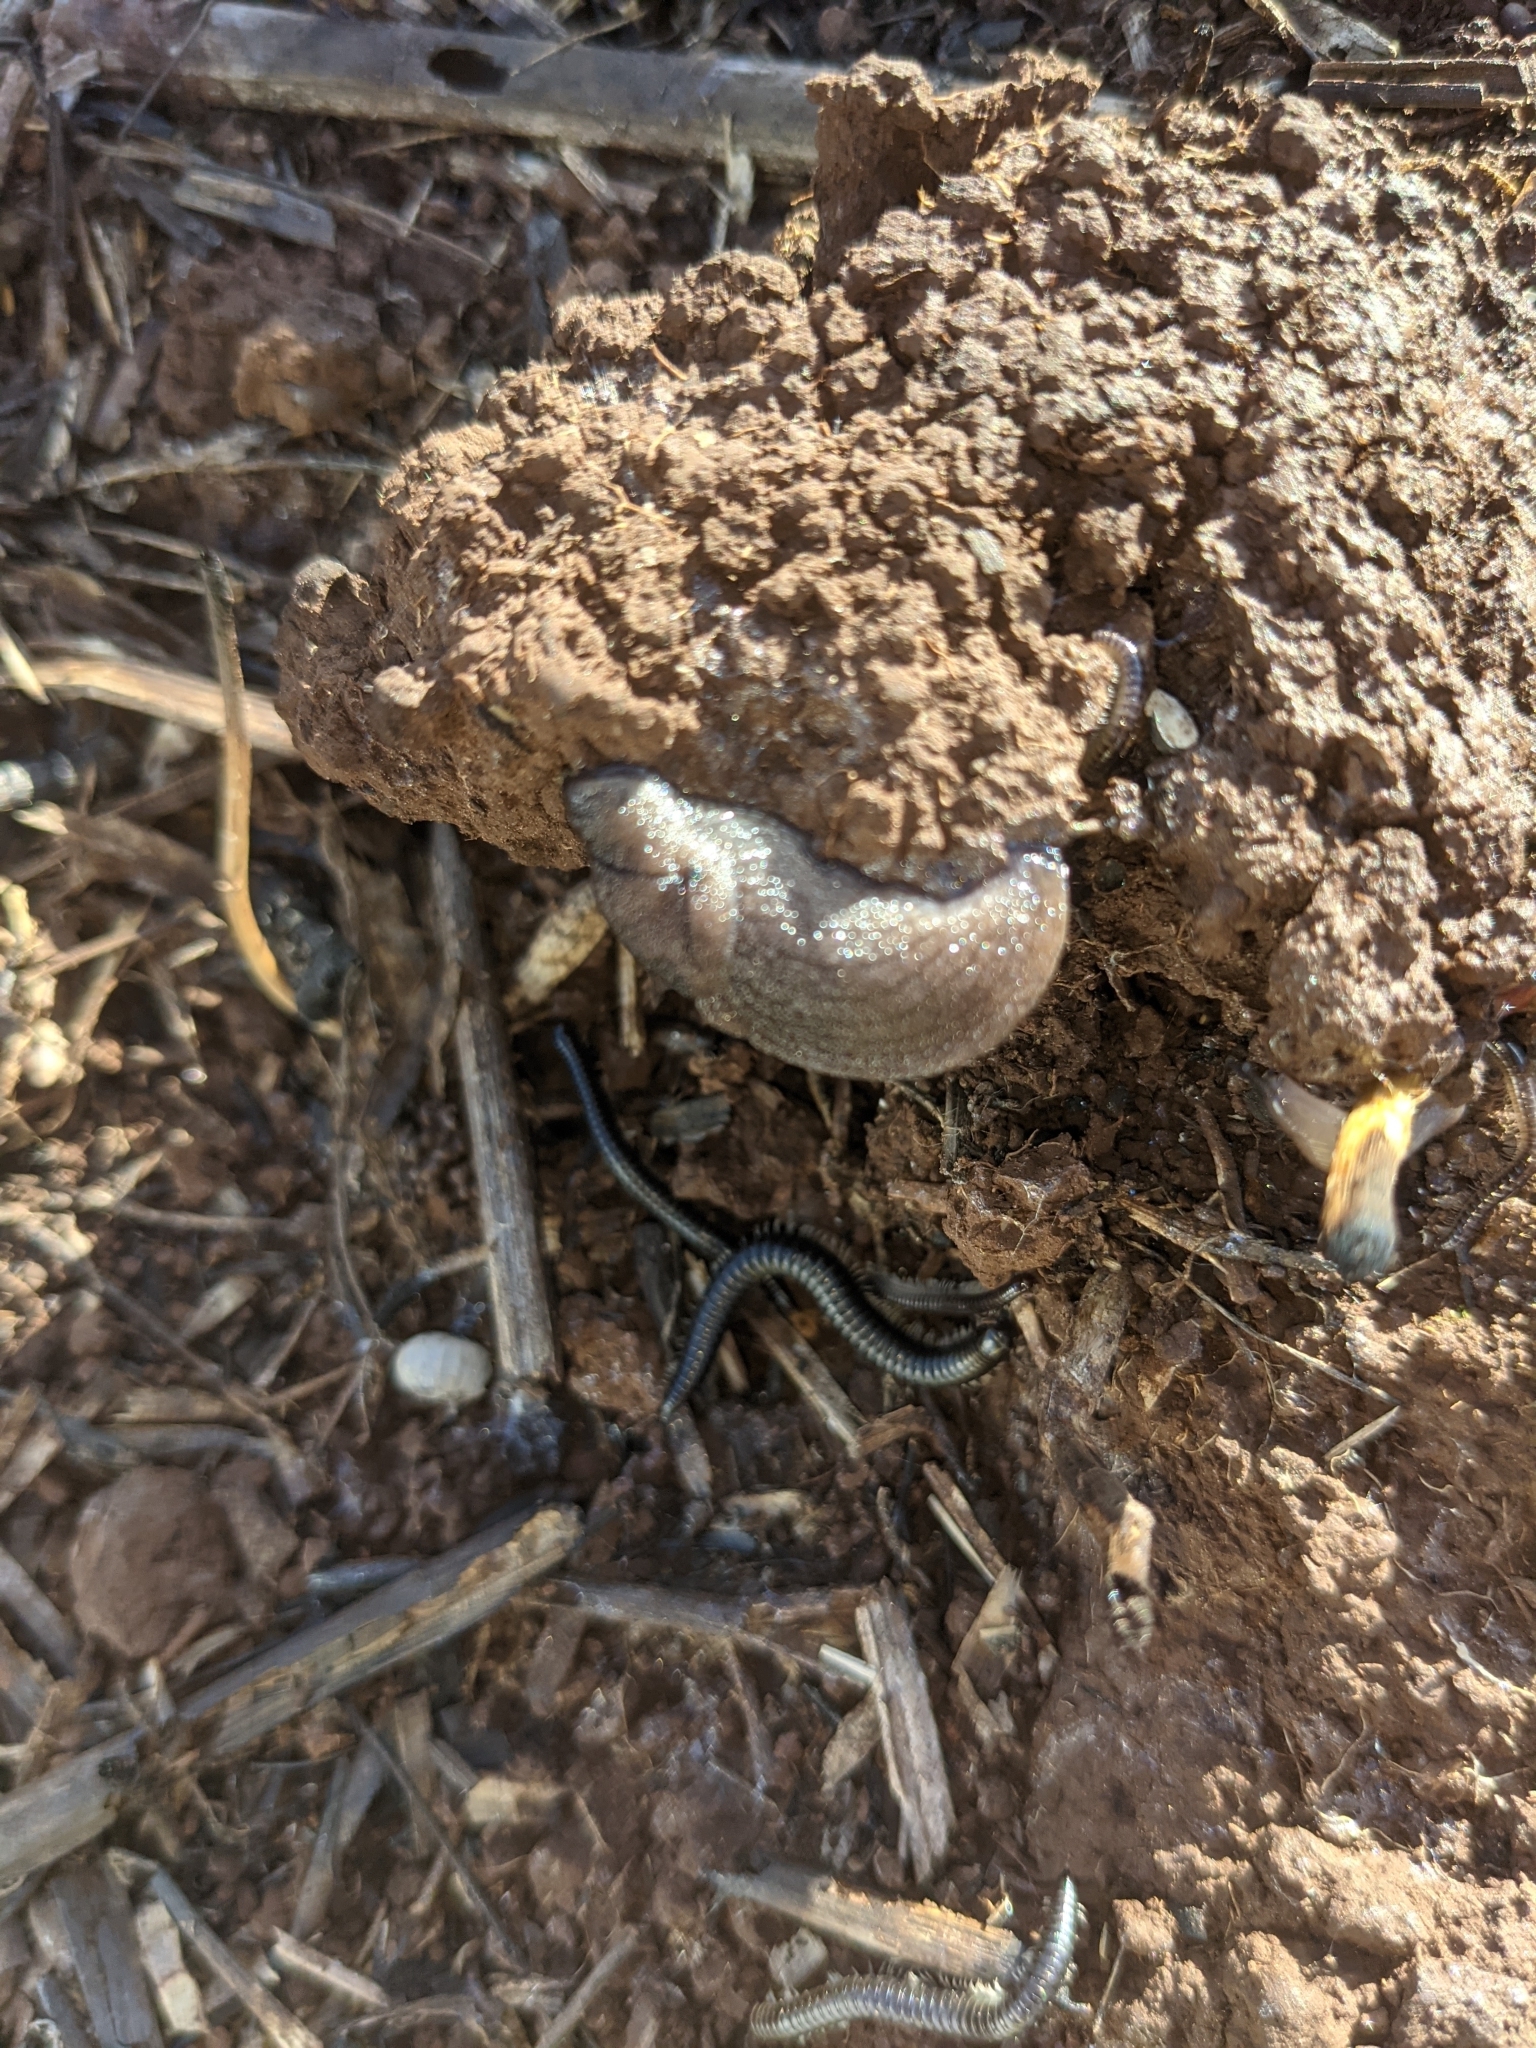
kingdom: Animalia
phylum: Mollusca
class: Gastropoda
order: Stylommatophora
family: Milacidae
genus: Milax
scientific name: Milax gagates
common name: Greenhouse slug
